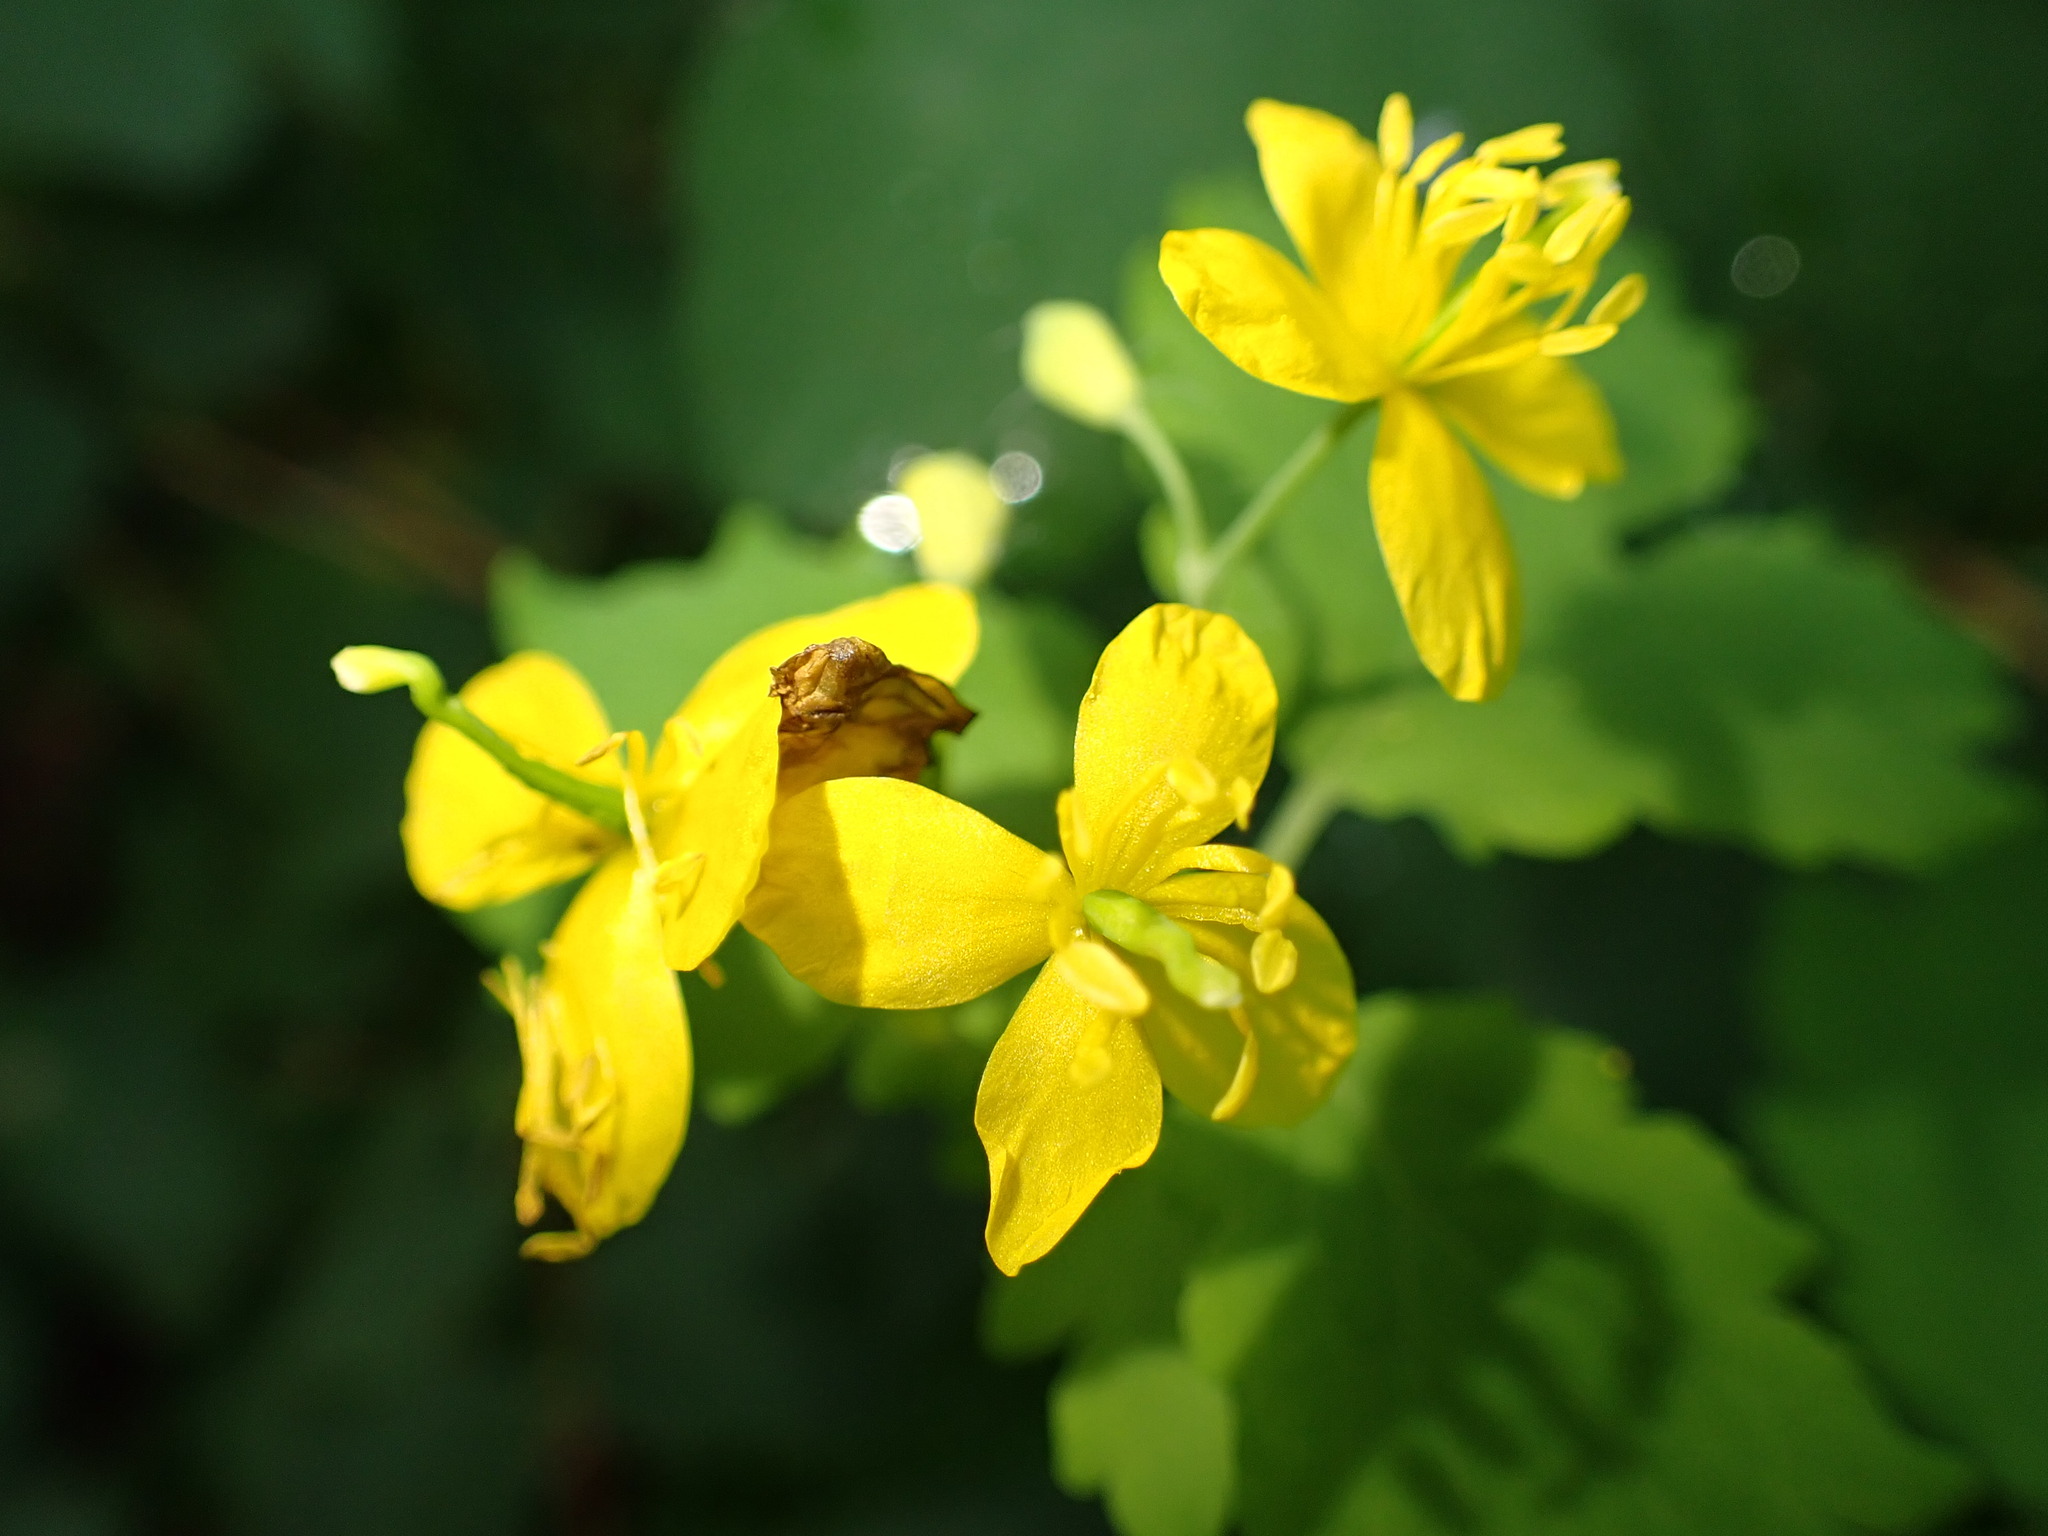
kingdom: Plantae
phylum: Tracheophyta
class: Magnoliopsida
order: Ranunculales
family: Papaveraceae
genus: Chelidonium
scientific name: Chelidonium majus
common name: Greater celandine
